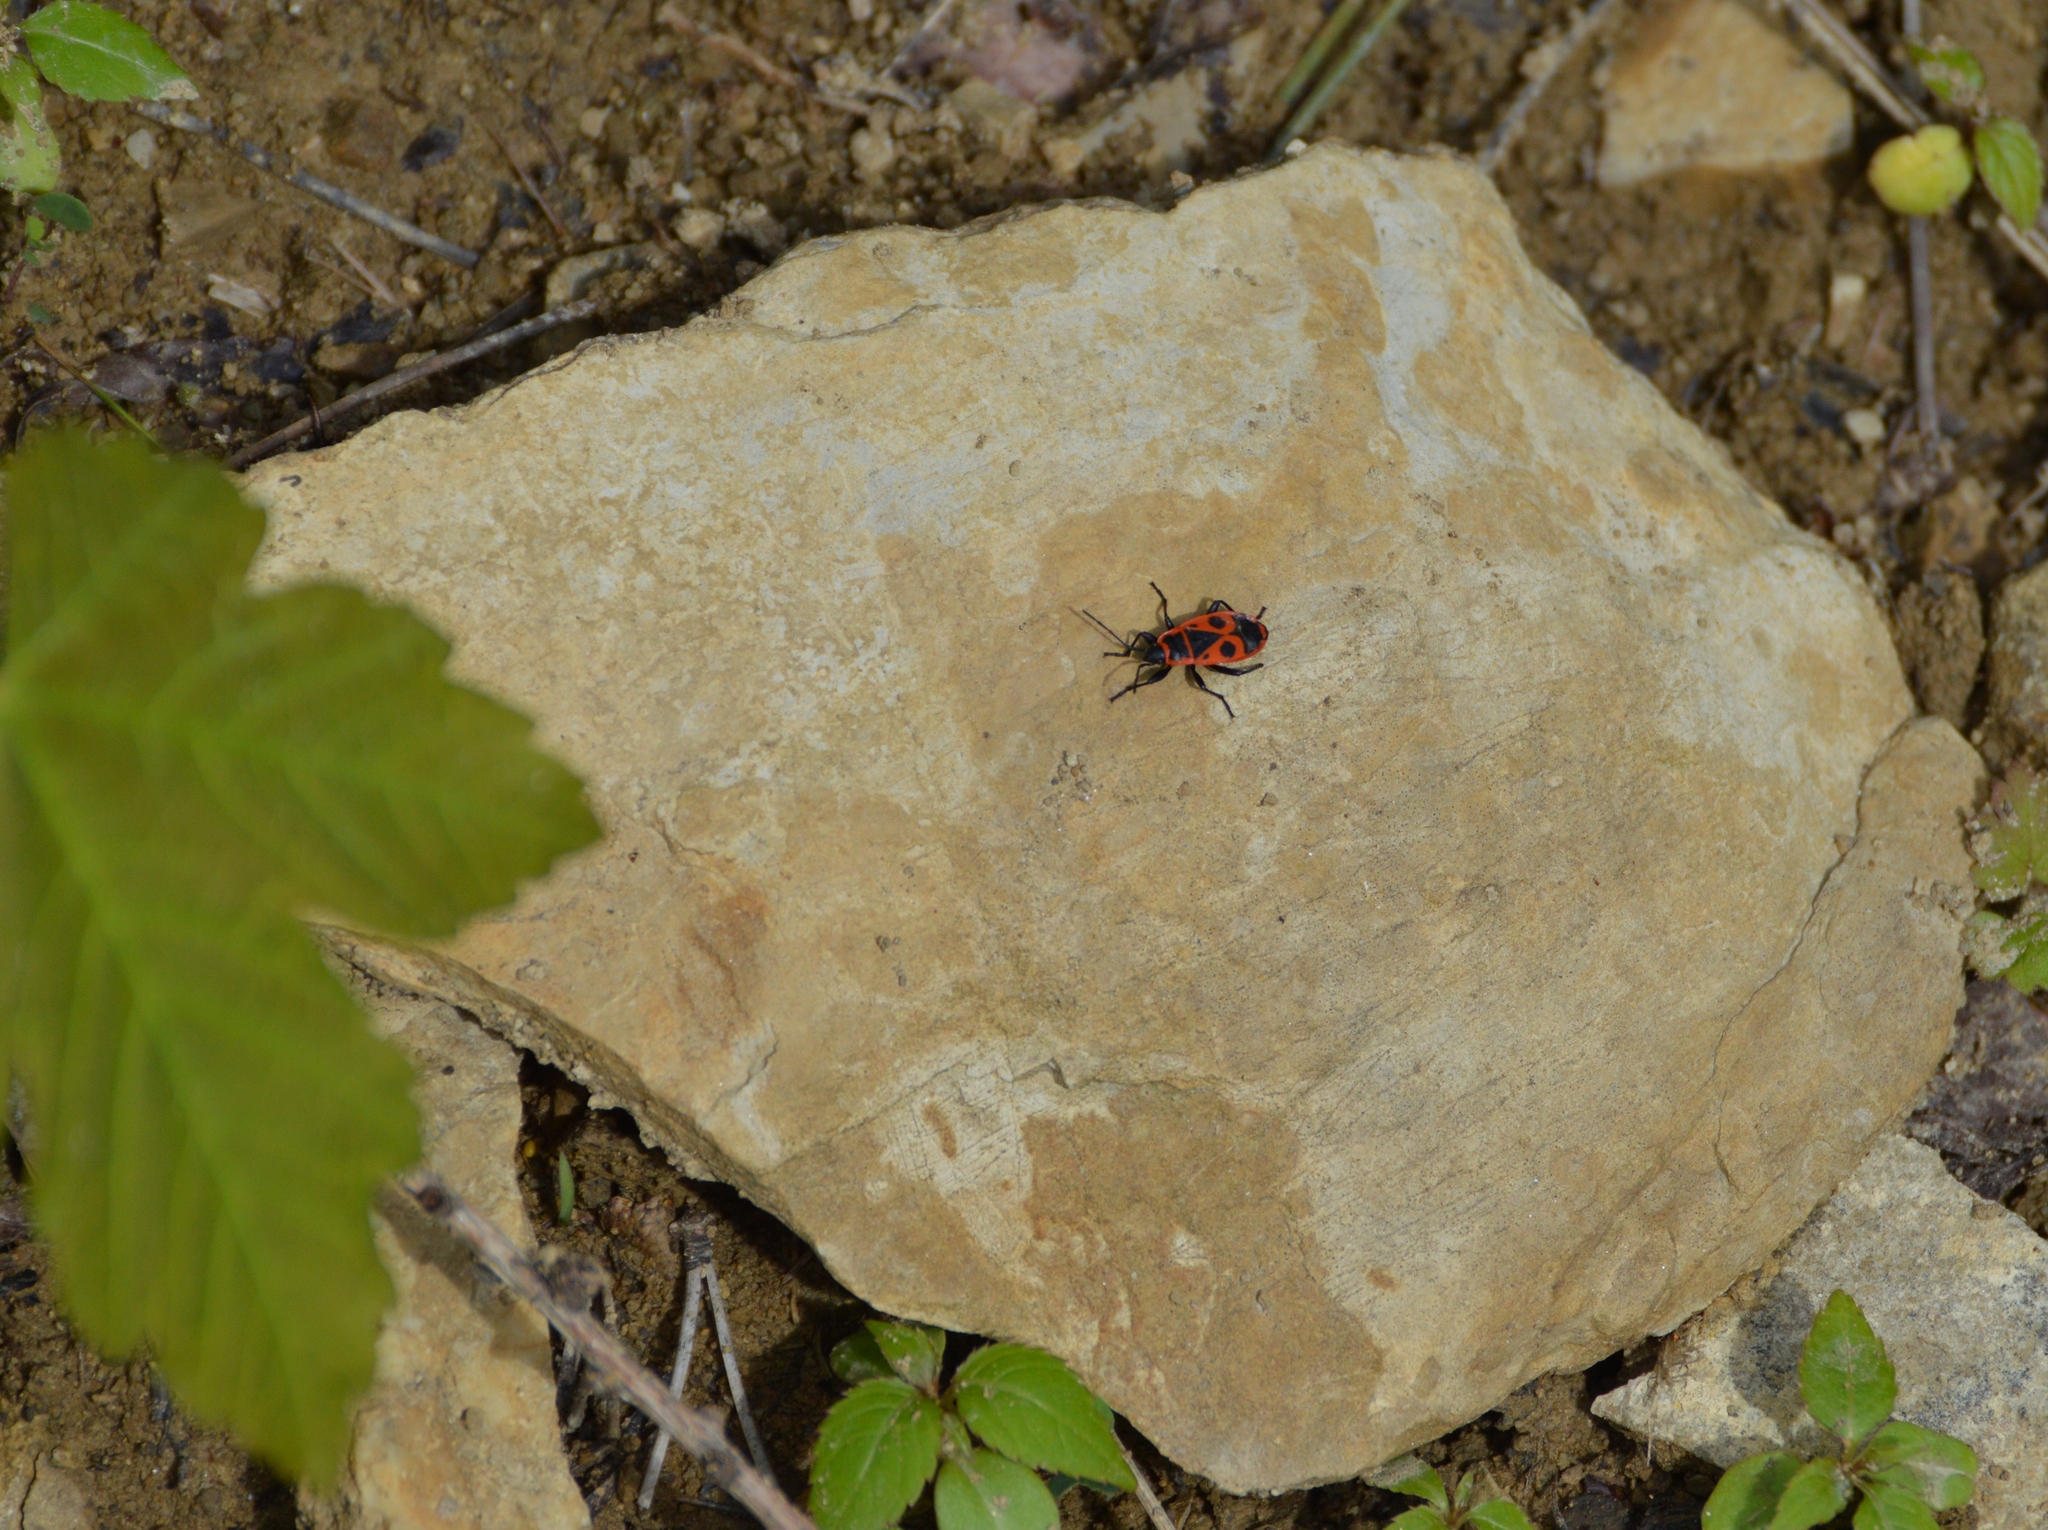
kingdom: Animalia
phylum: Arthropoda
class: Insecta
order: Hemiptera
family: Pyrrhocoridae
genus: Pyrrhocoris
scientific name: Pyrrhocoris apterus
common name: Firebug
